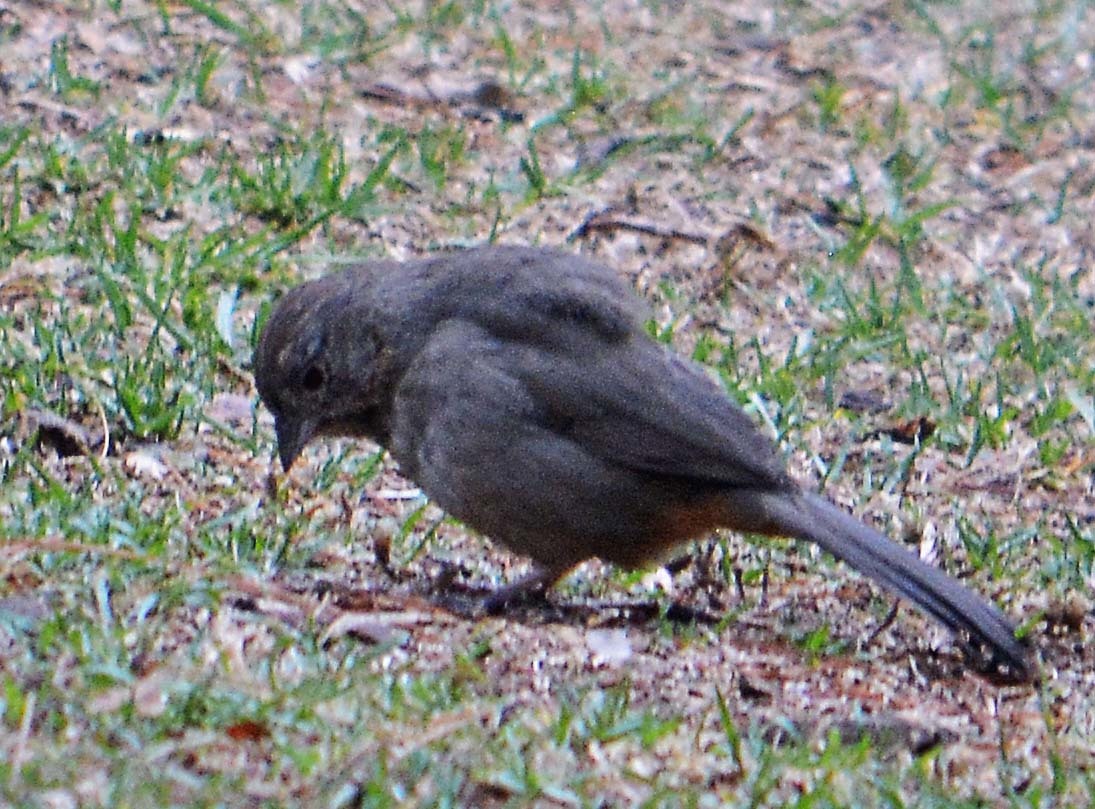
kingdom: Animalia
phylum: Chordata
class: Aves
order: Passeriformes
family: Passerellidae
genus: Melozone
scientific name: Melozone fusca
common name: Canyon towhee
